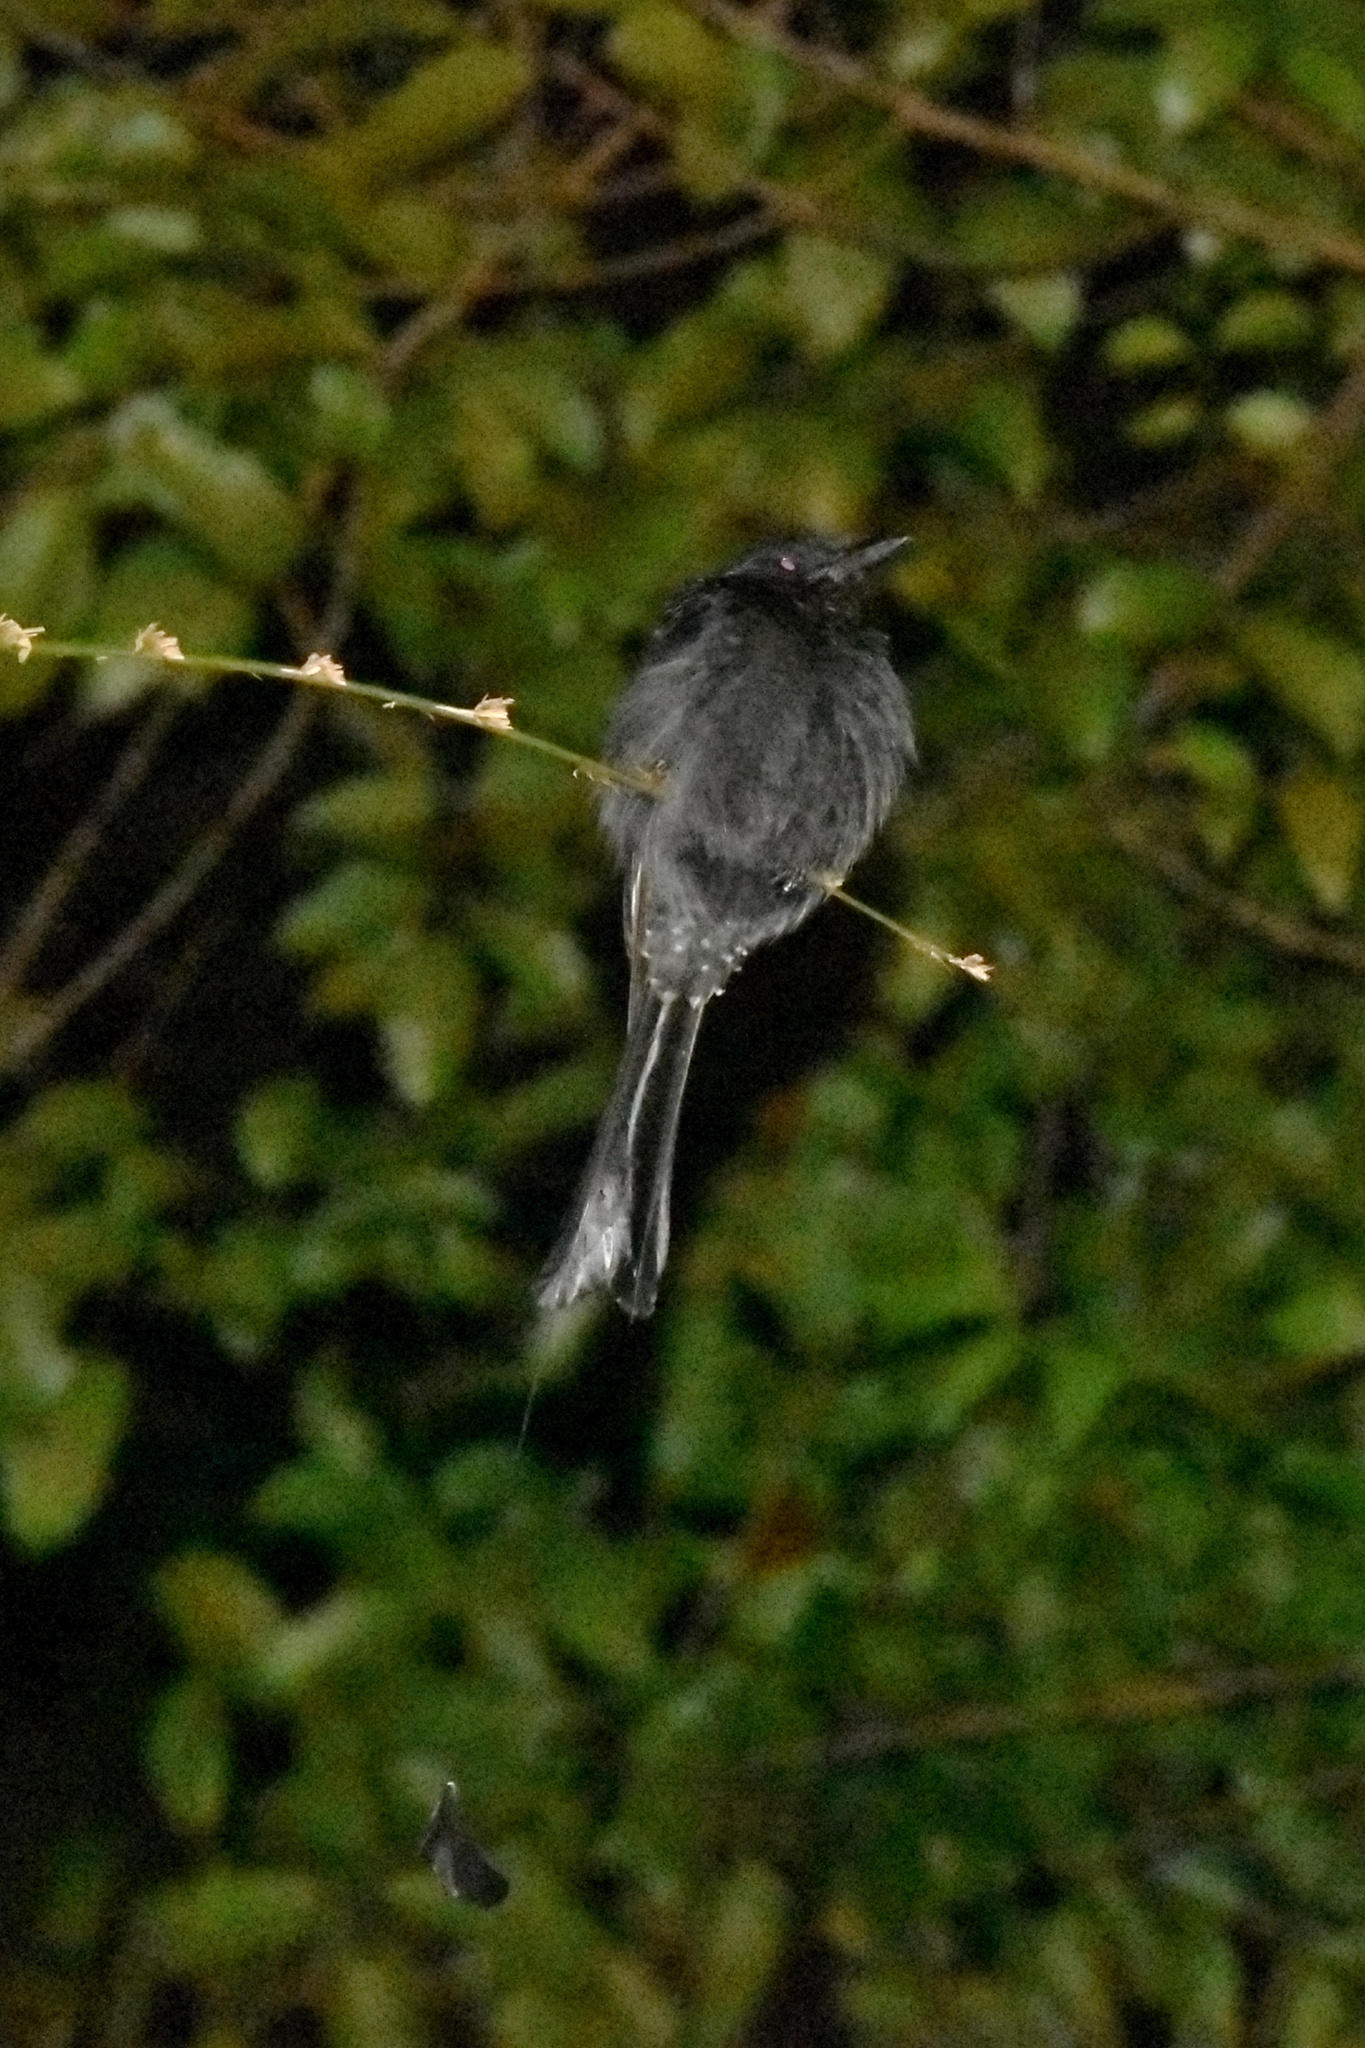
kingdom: Animalia
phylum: Chordata
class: Aves
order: Passeriformes
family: Dicruridae
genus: Dicrurus
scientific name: Dicrurus paradiseus
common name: Greater racket-tailed drongo
